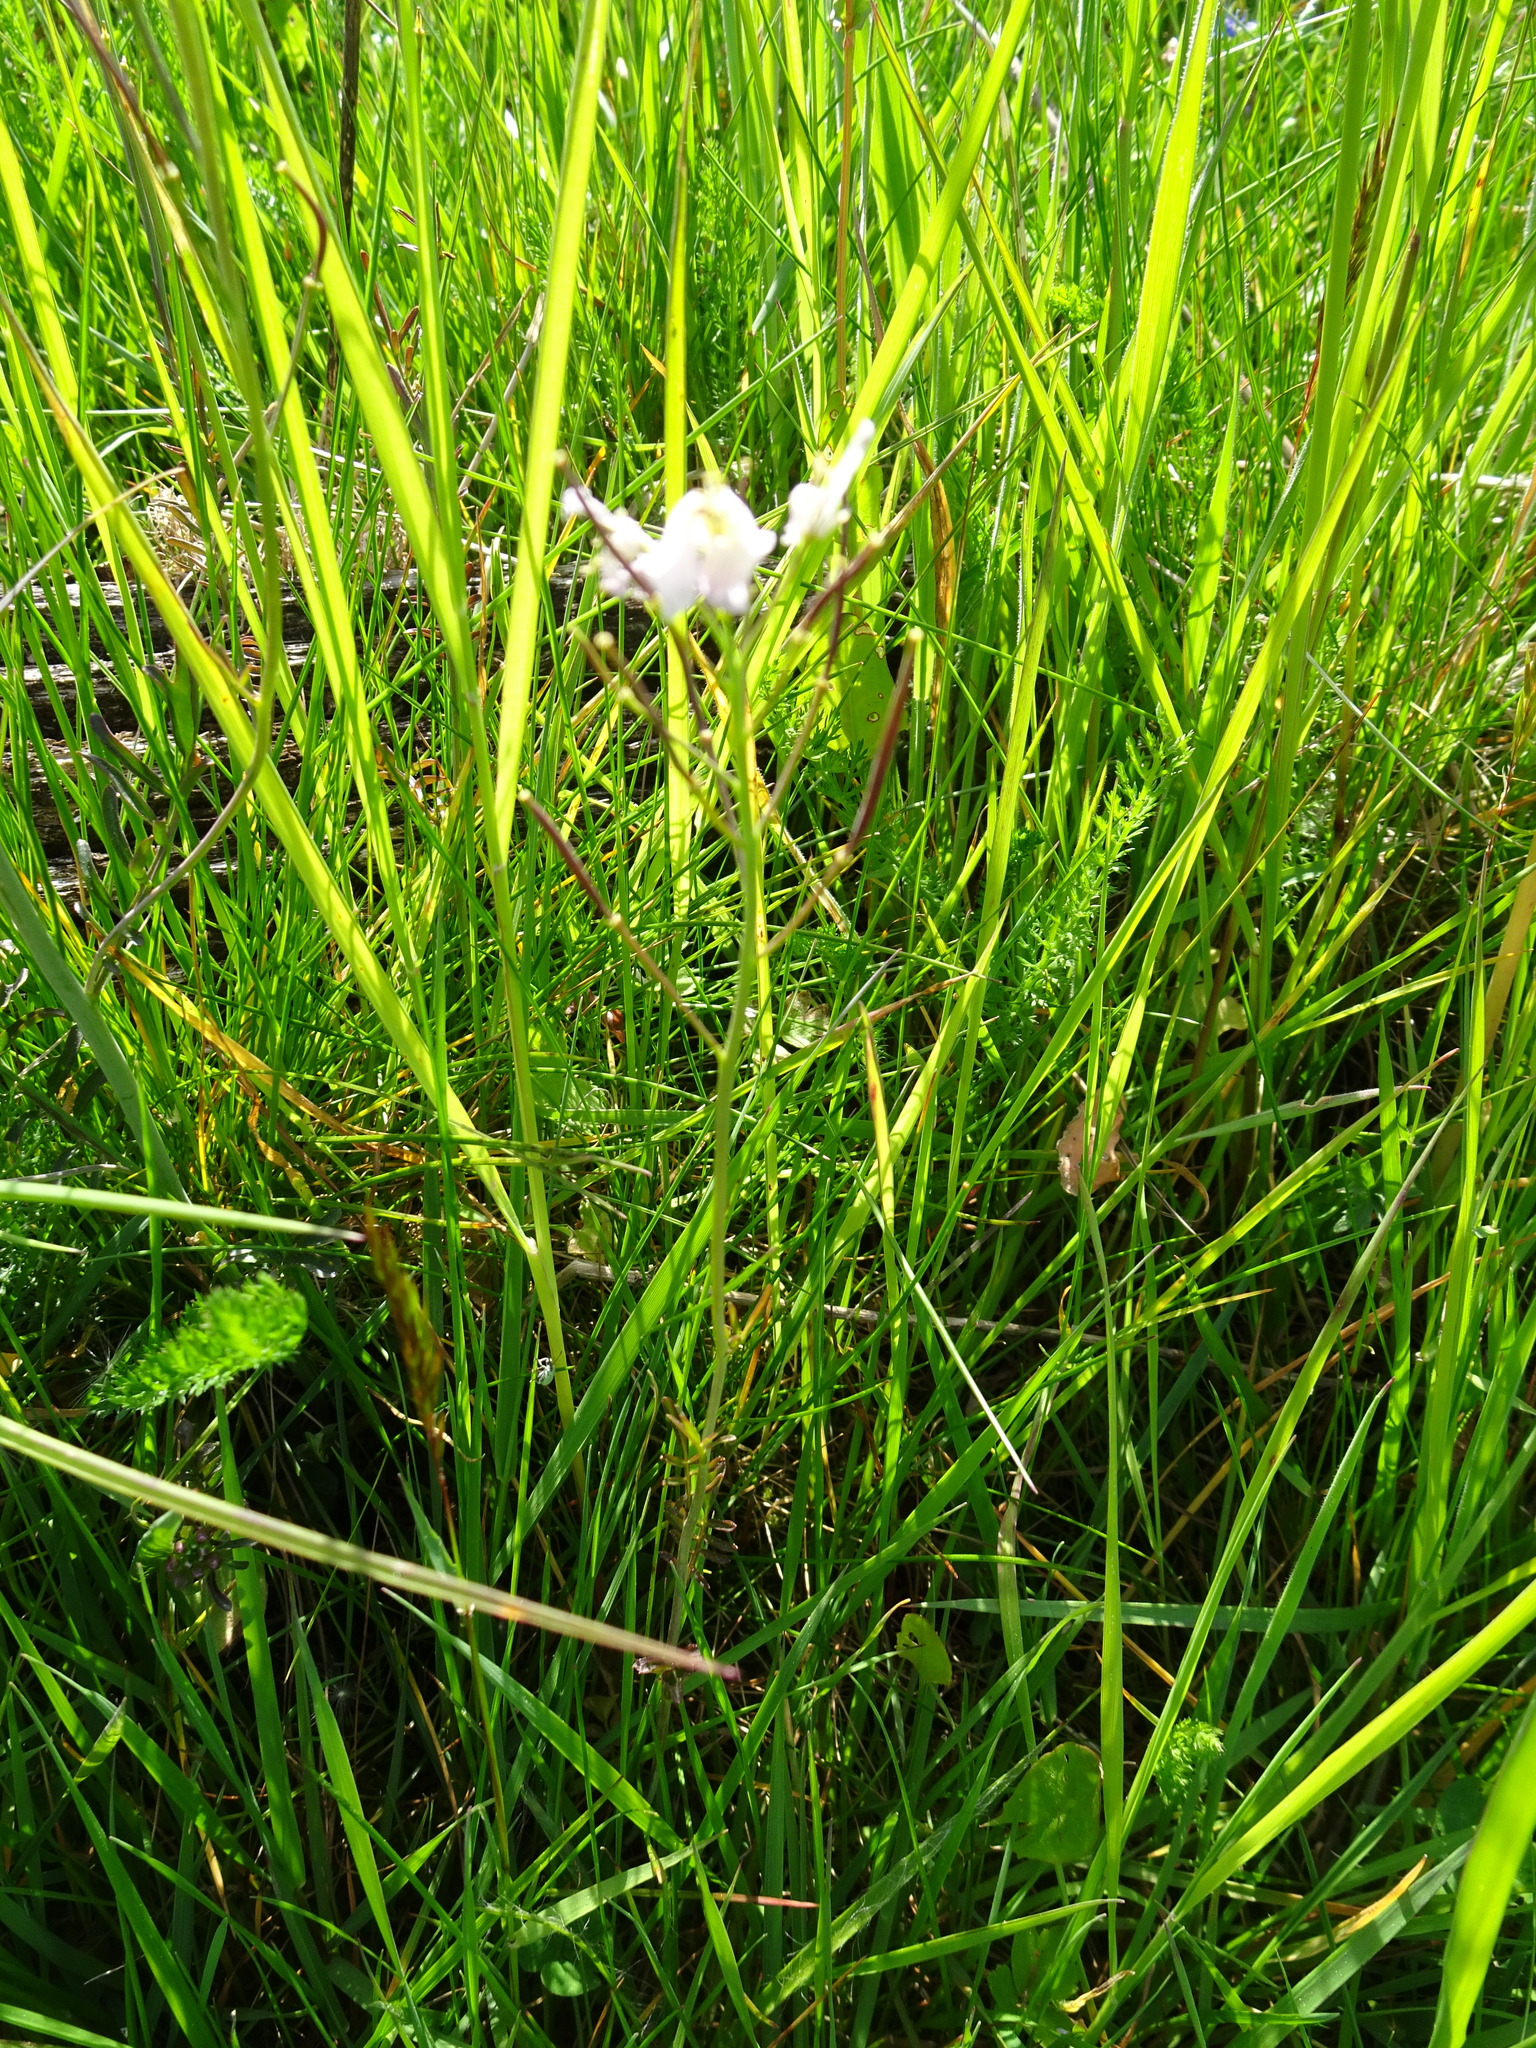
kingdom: Plantae
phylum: Tracheophyta
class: Magnoliopsida
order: Brassicales
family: Brassicaceae
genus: Cardamine
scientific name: Cardamine pratensis
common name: Cuckoo flower
